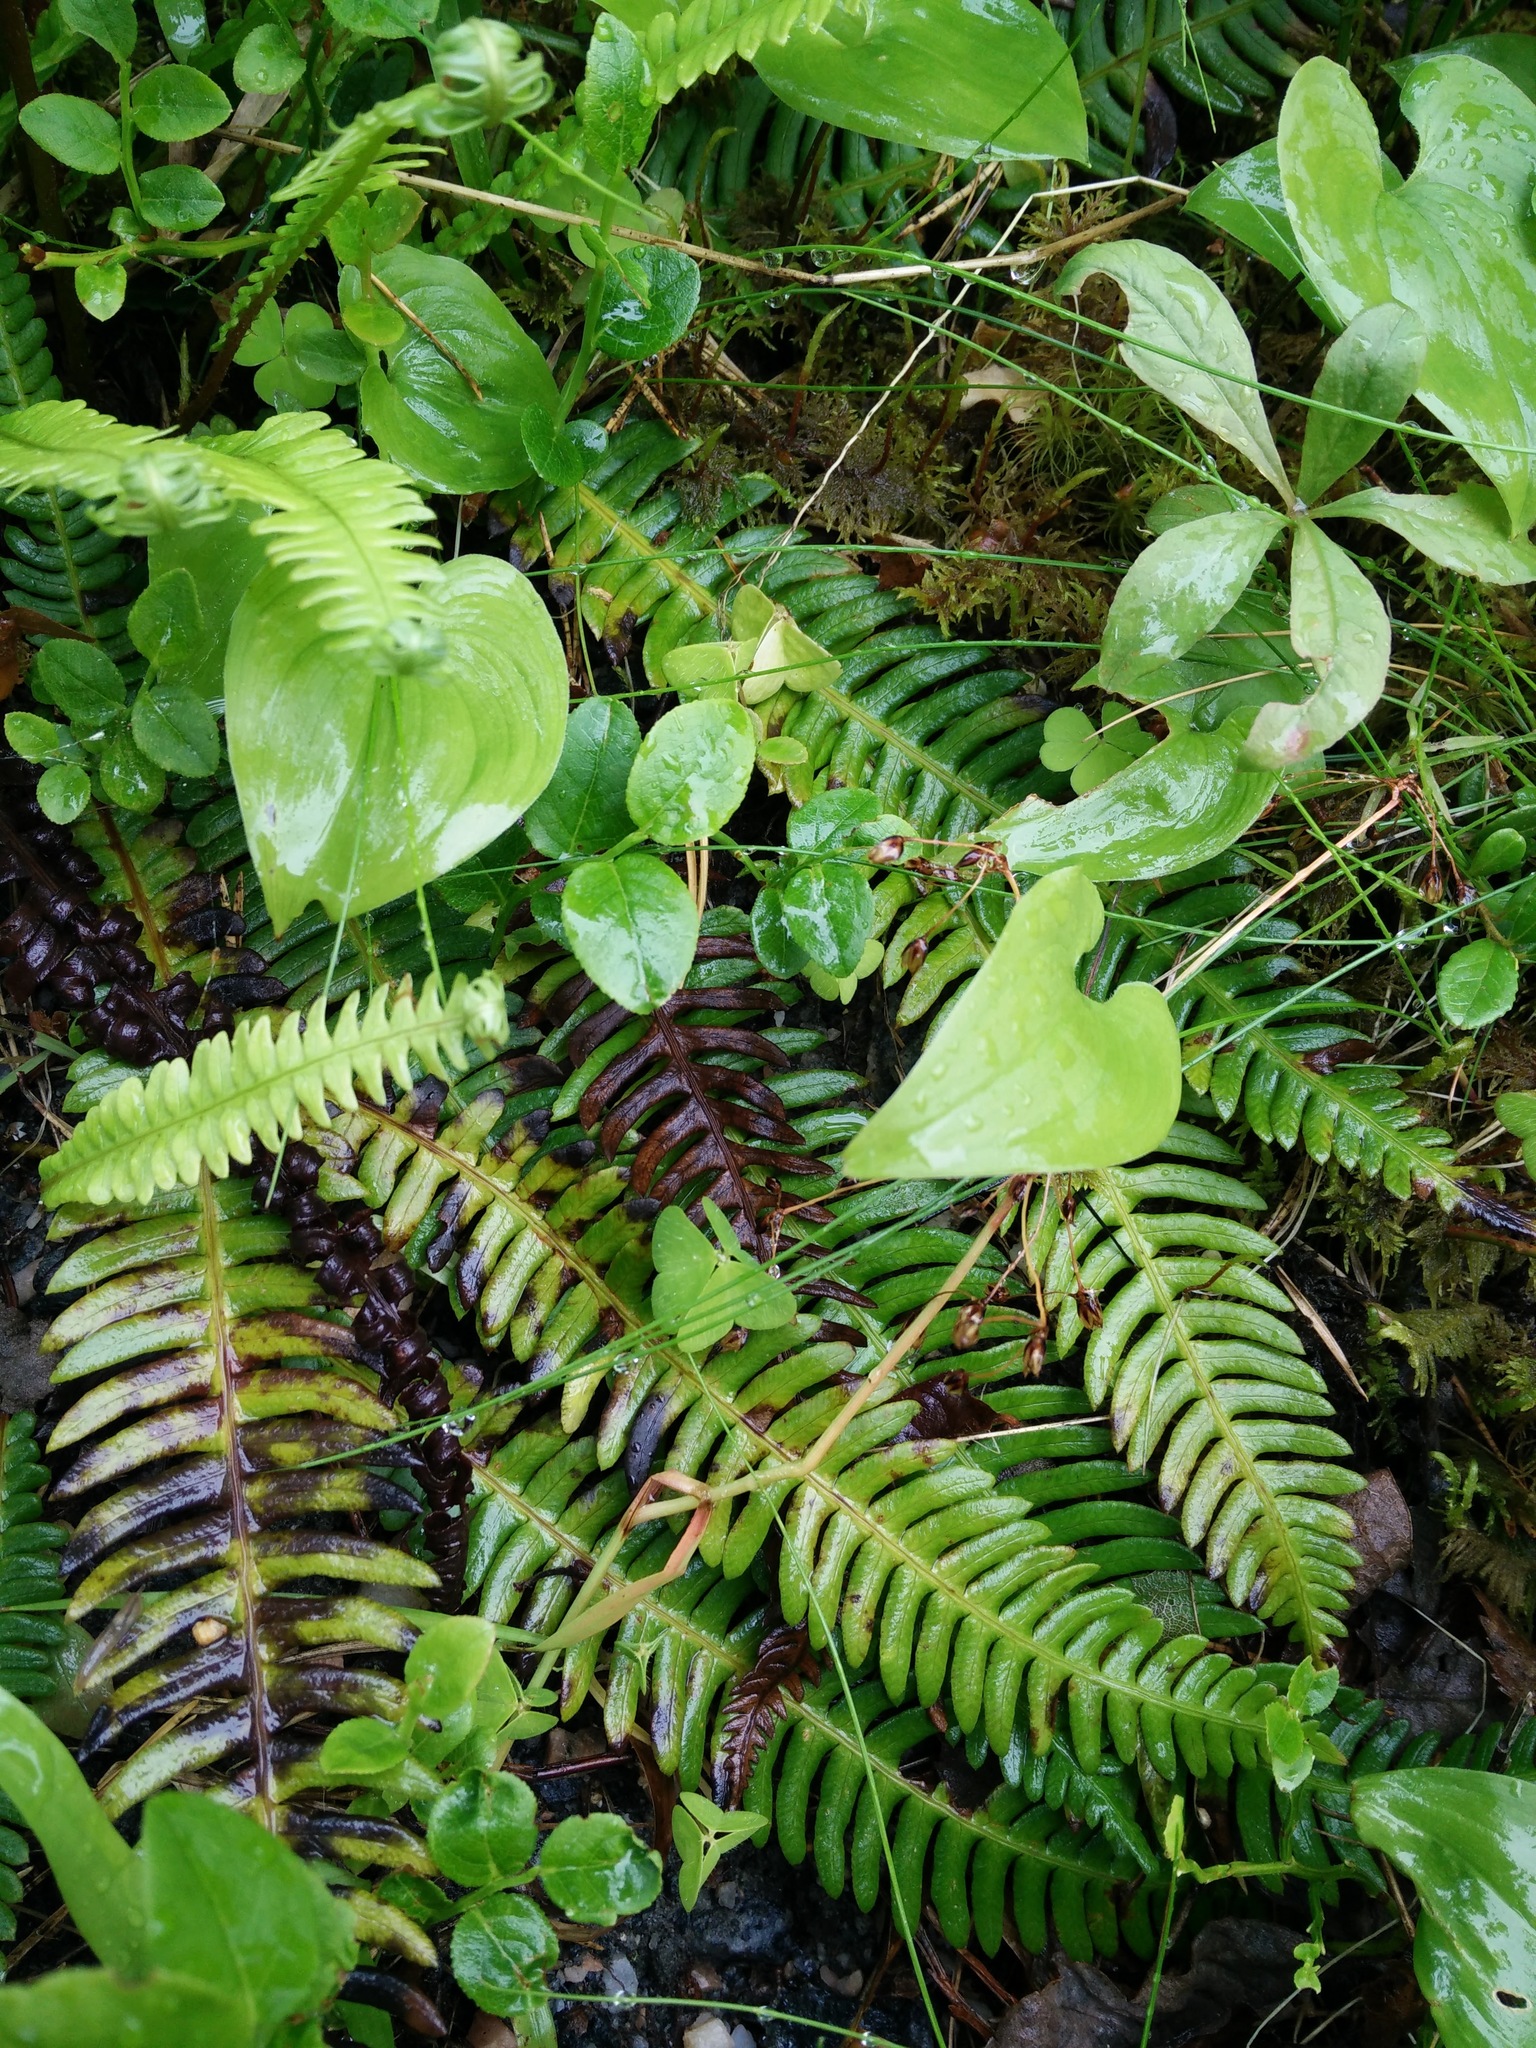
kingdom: Plantae
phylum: Tracheophyta
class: Polypodiopsida
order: Polypodiales
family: Blechnaceae
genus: Struthiopteris
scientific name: Struthiopteris spicant
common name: Deer fern
